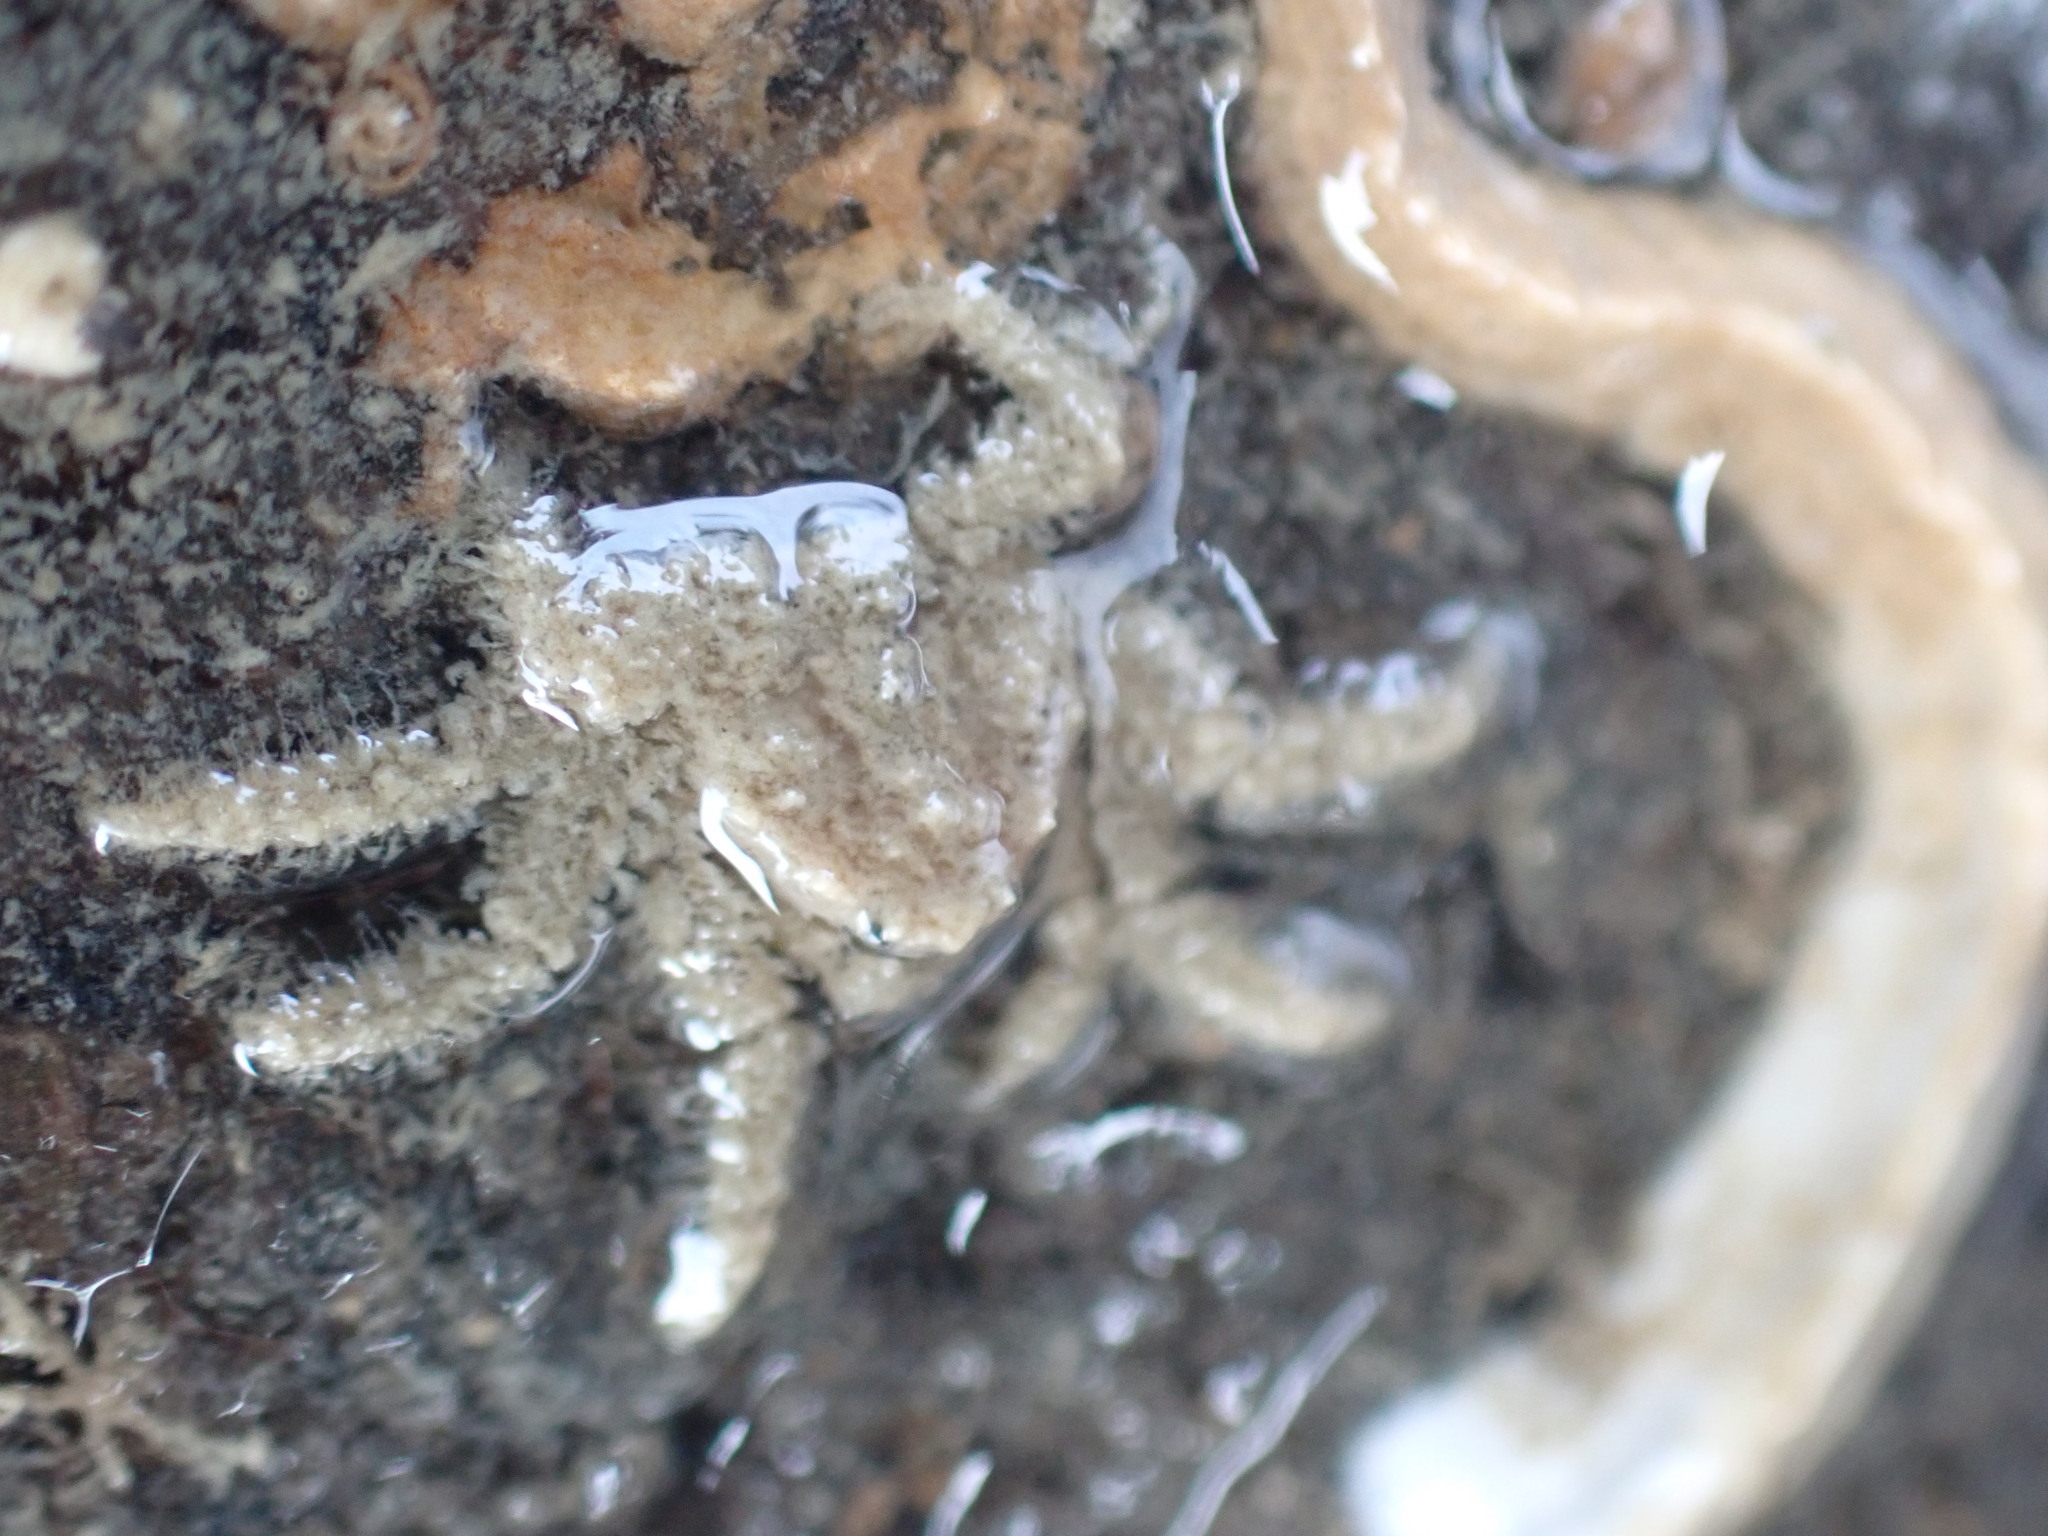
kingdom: Animalia
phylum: Arthropoda
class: Malacostraca
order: Decapoda
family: Hymenosomatidae
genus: Neohymenicus
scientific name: Neohymenicus pubescens
